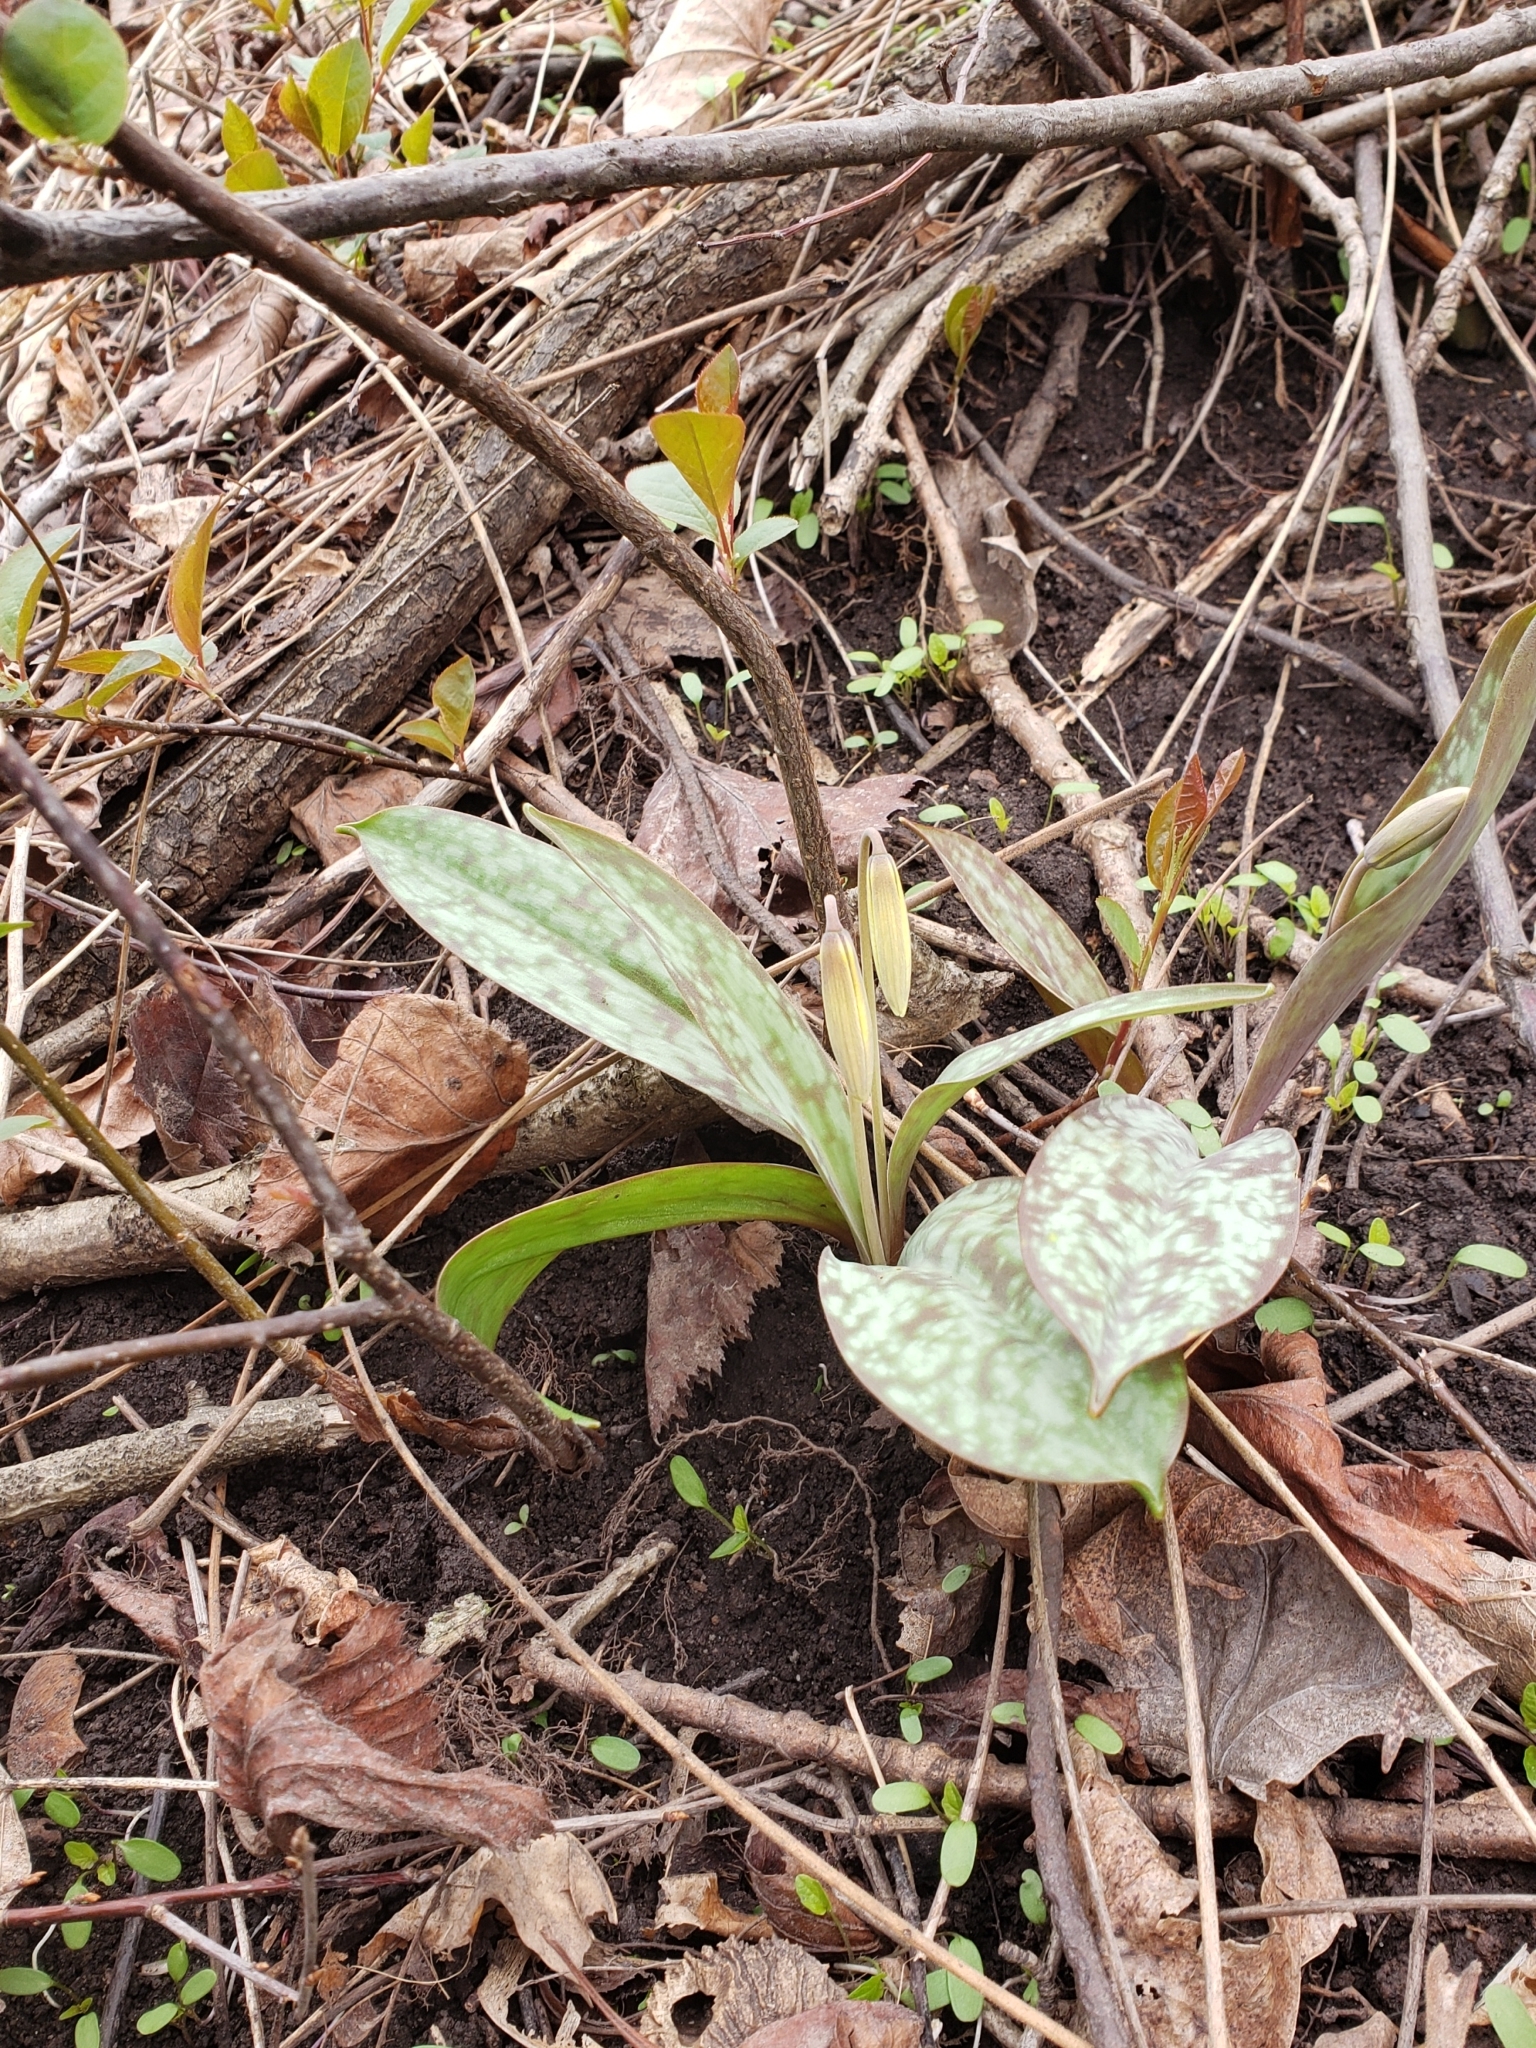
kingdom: Plantae
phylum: Tracheophyta
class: Liliopsida
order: Liliales
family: Liliaceae
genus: Erythronium
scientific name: Erythronium americanum
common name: Yellow adder's-tongue
